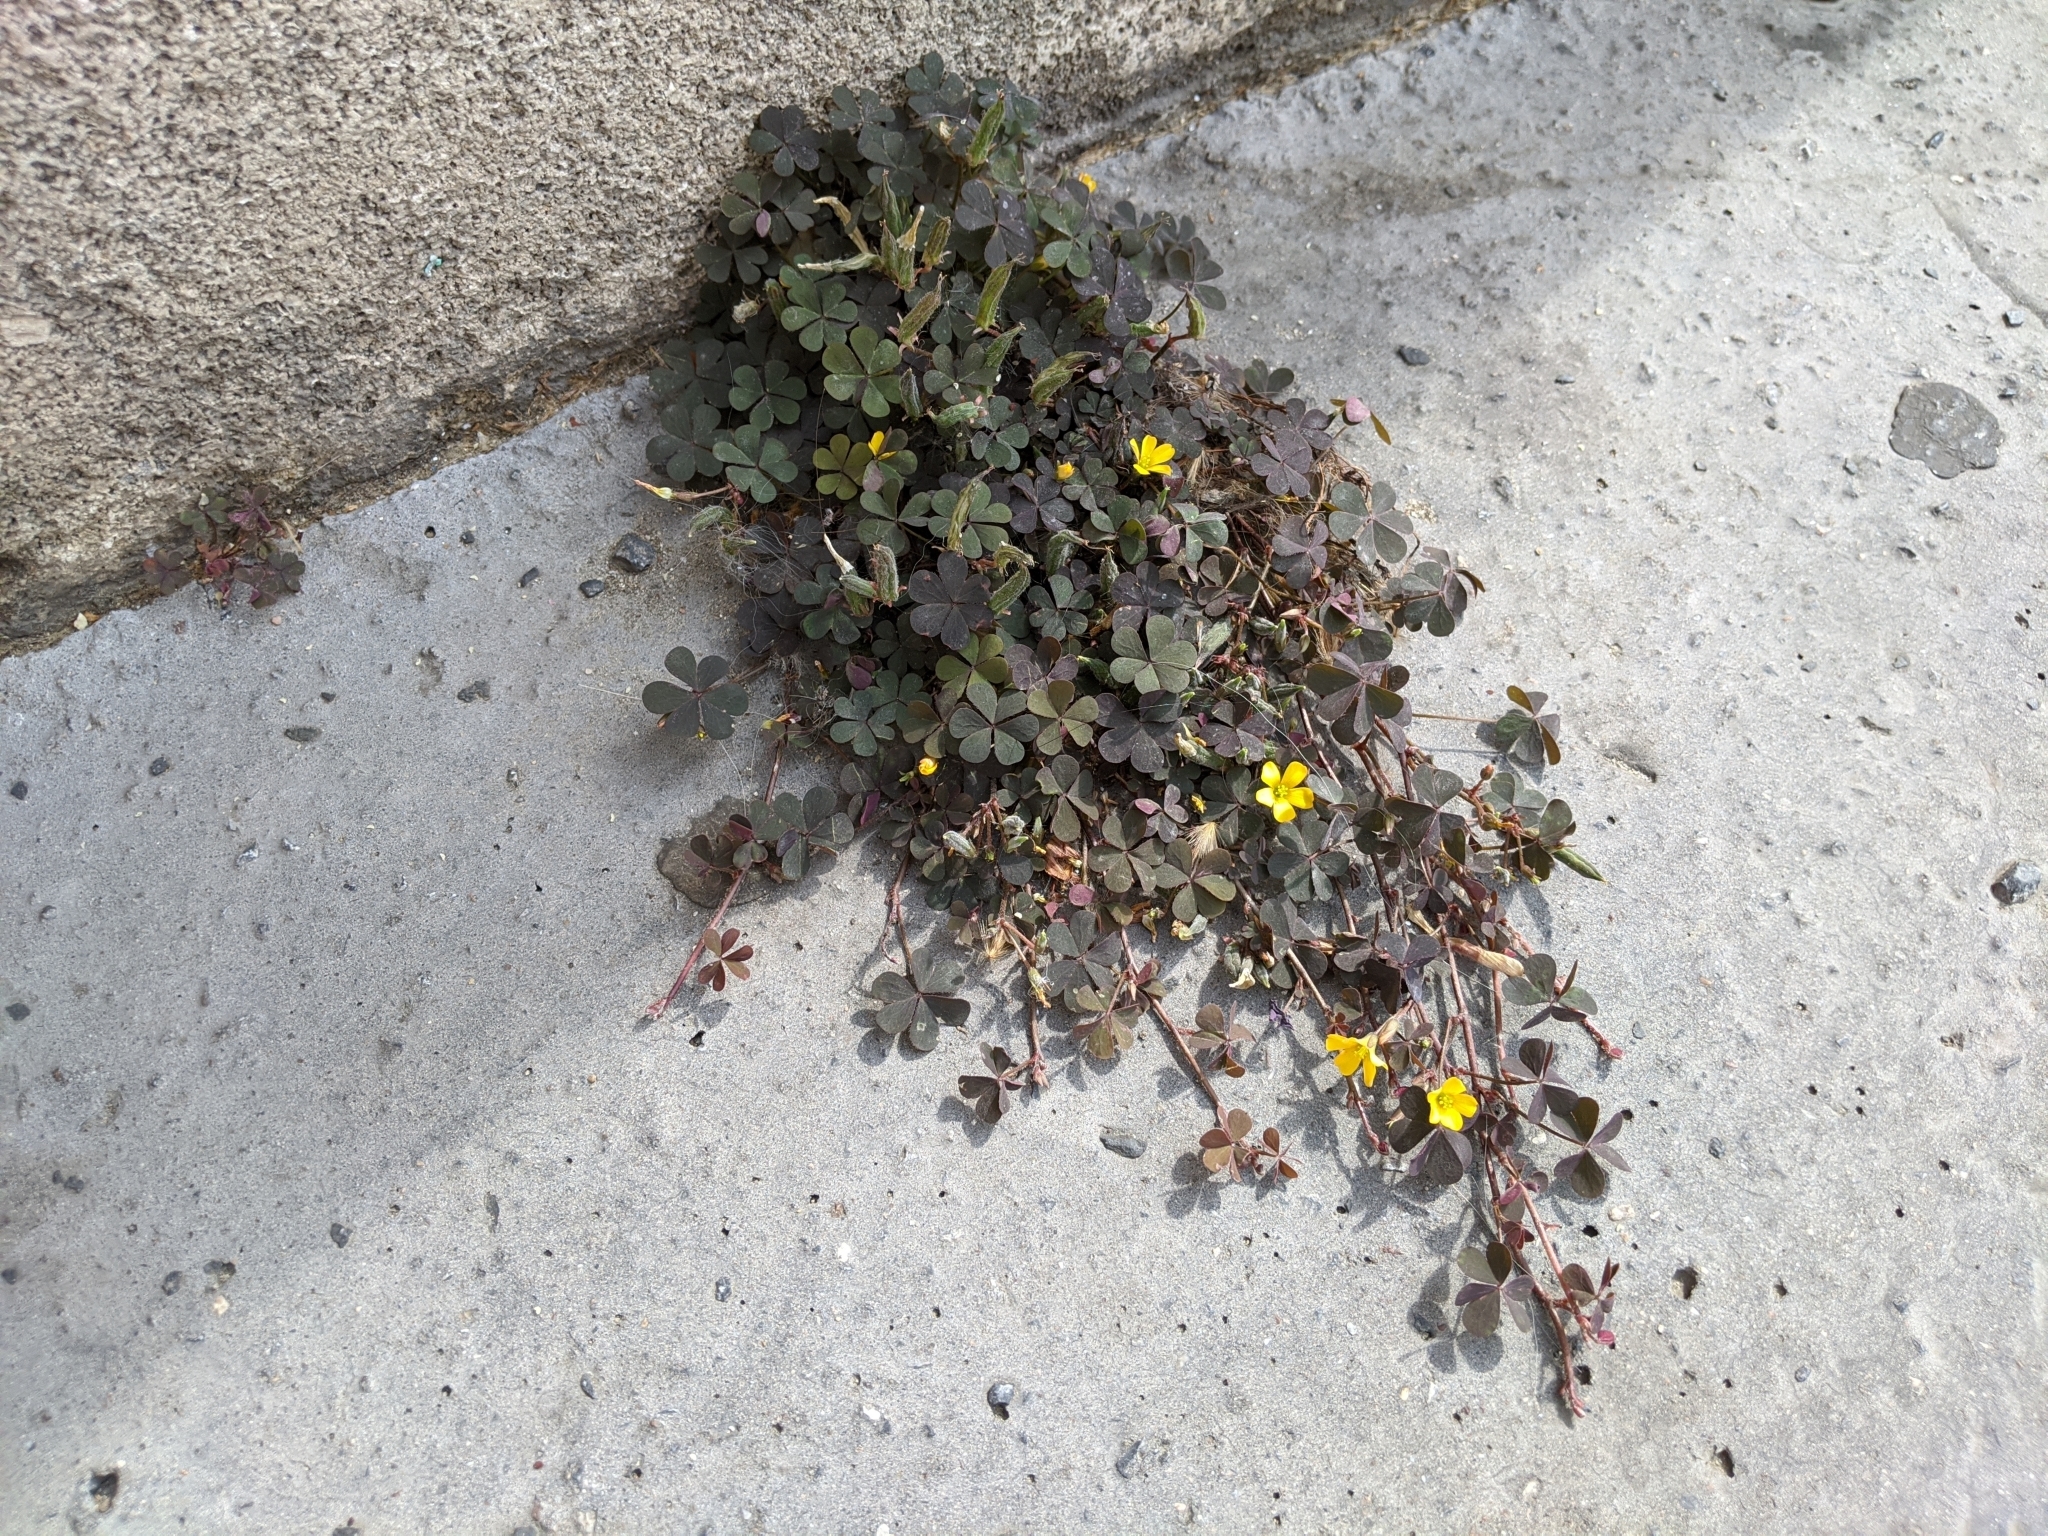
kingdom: Plantae
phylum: Tracheophyta
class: Magnoliopsida
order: Oxalidales
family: Oxalidaceae
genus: Oxalis
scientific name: Oxalis corniculata
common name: Procumbent yellow-sorrel
